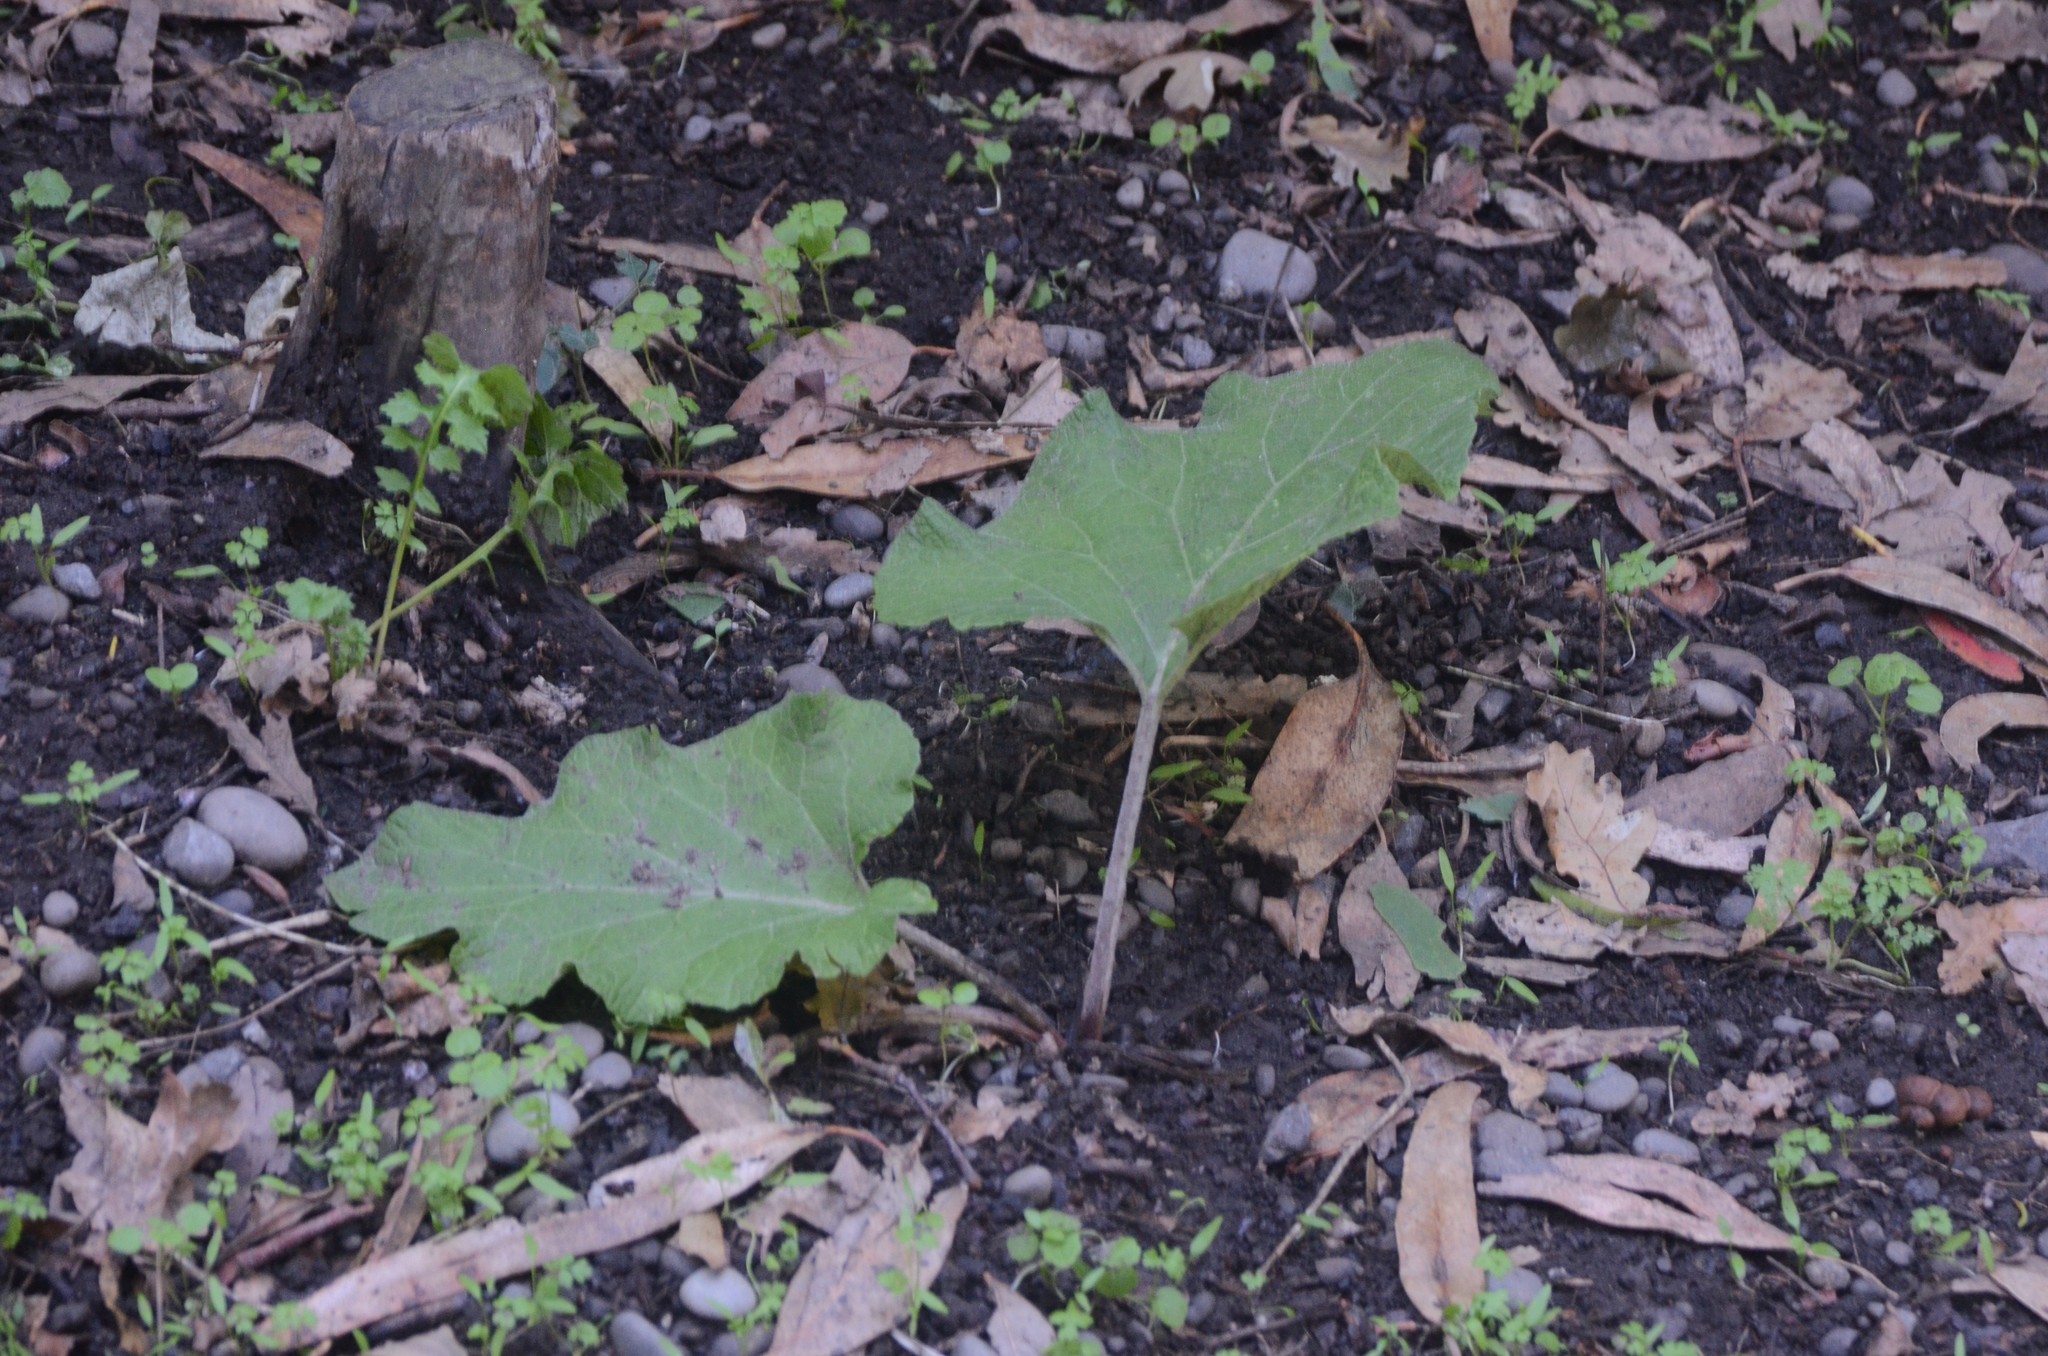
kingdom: Plantae
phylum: Tracheophyta
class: Magnoliopsida
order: Asterales
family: Asteraceae
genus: Arctium
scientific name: Arctium minus
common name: Lesser burdock
